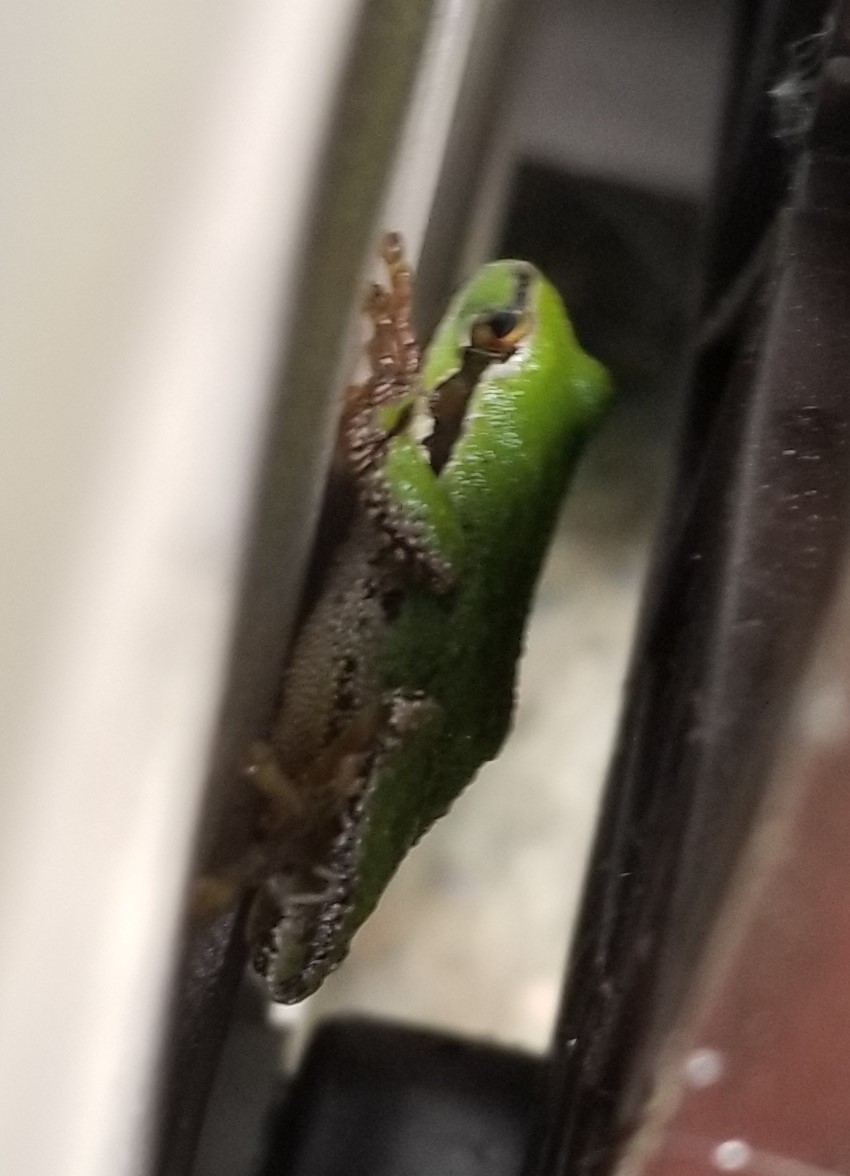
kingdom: Animalia
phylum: Chordata
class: Amphibia
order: Anura
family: Hylidae
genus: Pseudacris
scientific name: Pseudacris regilla
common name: Pacific chorus frog
